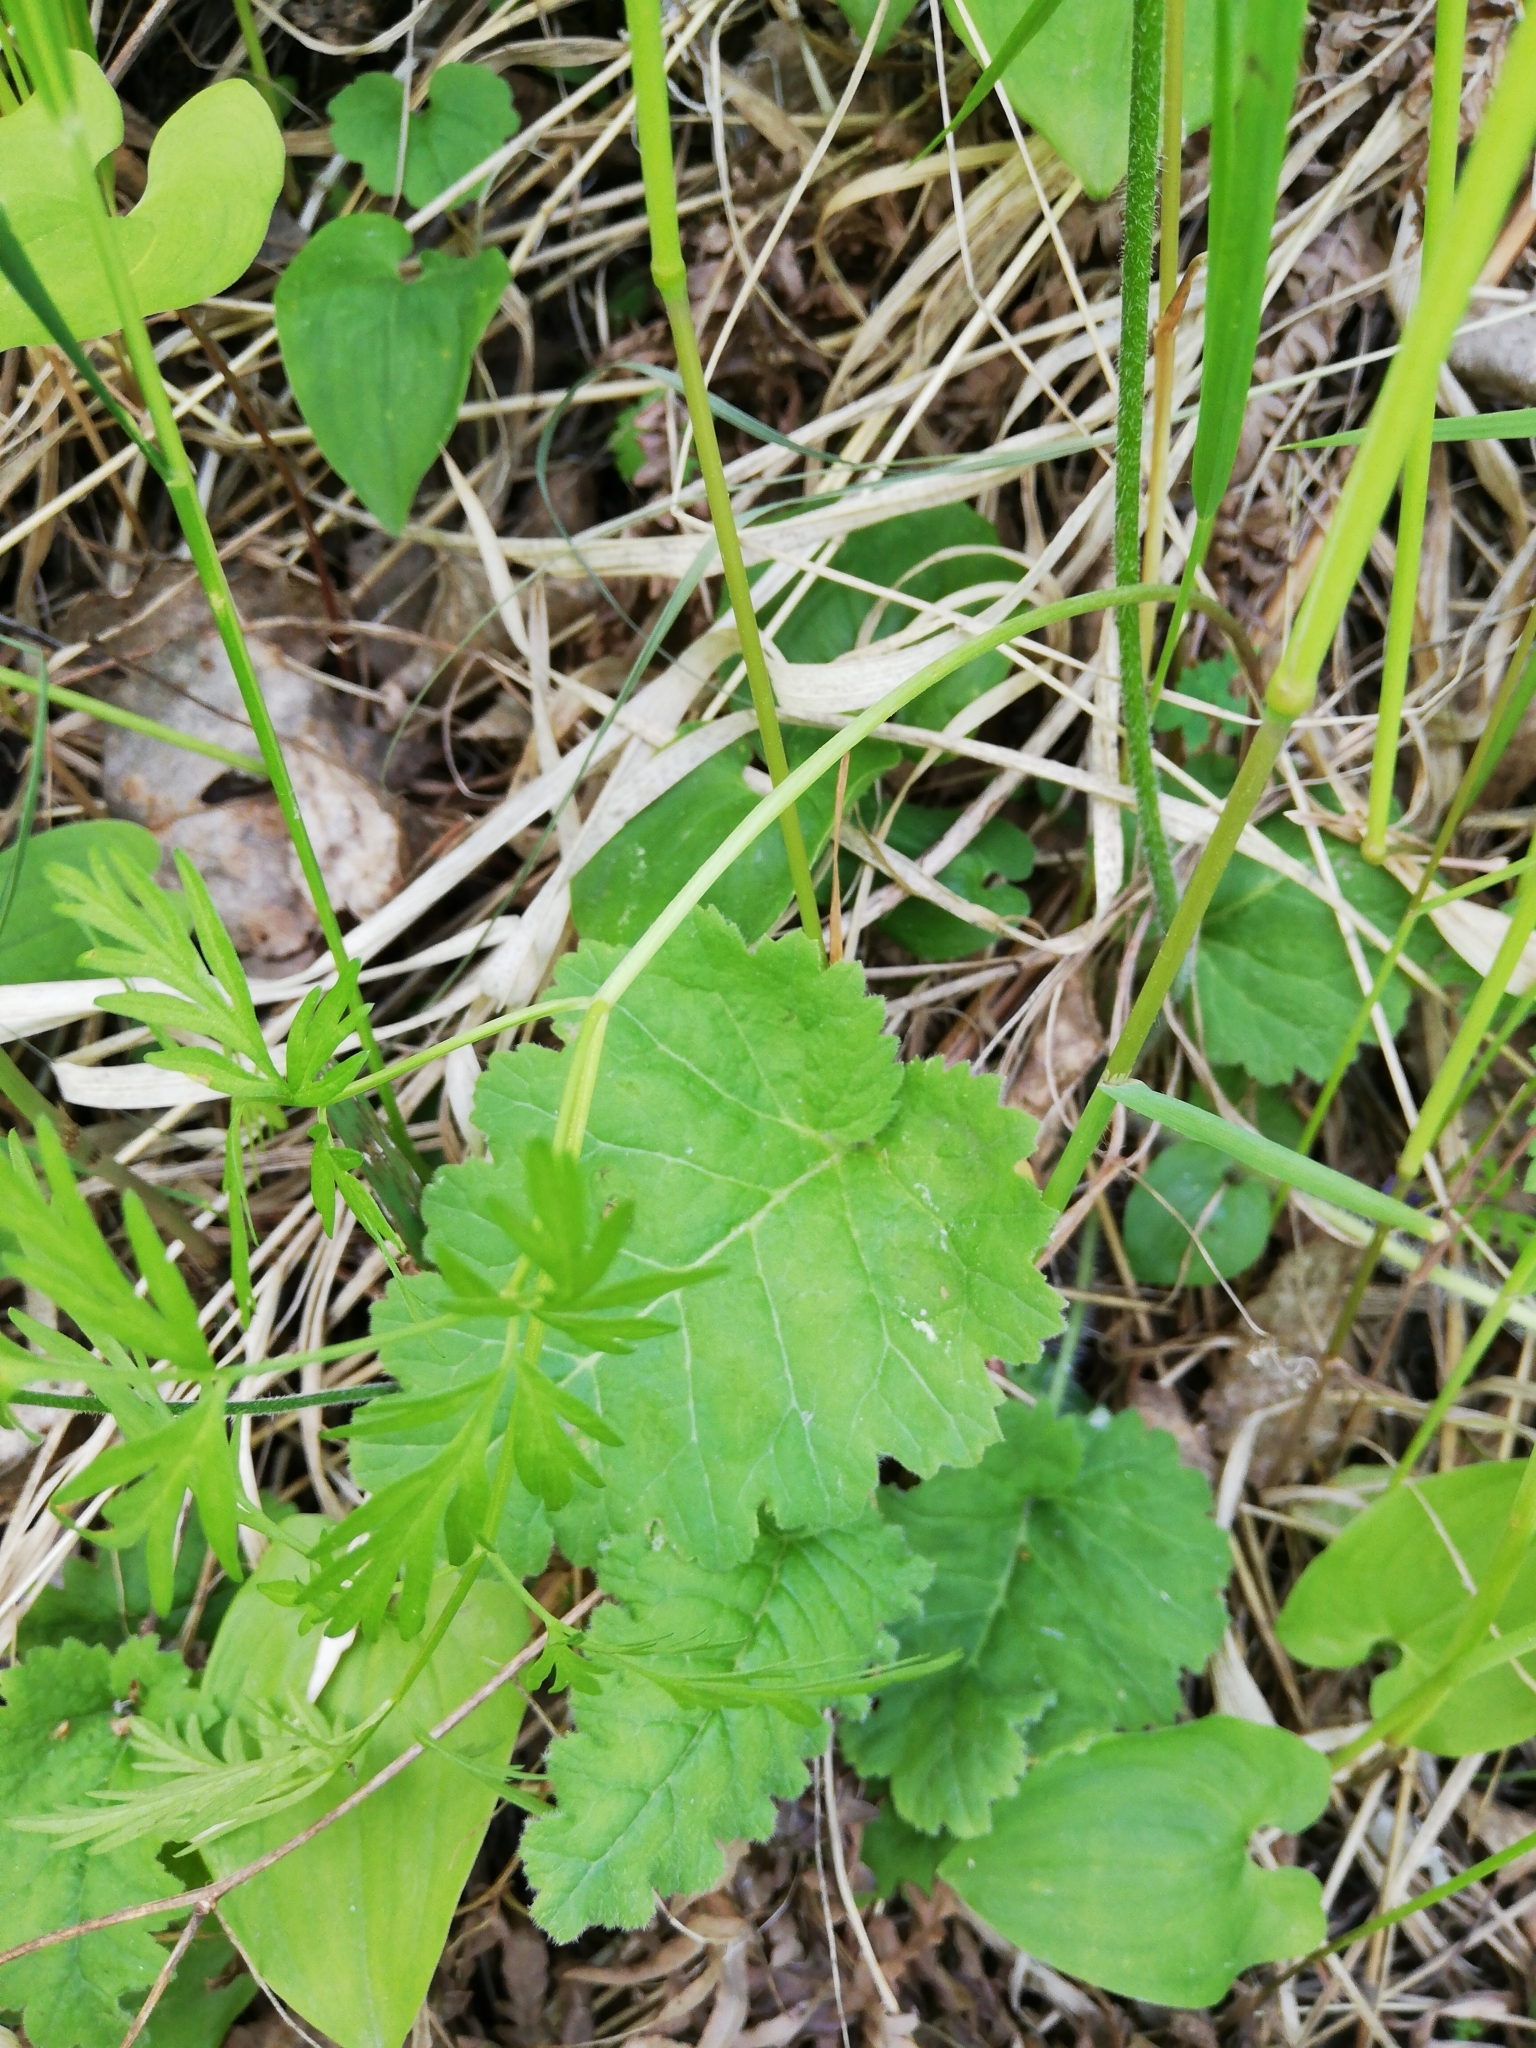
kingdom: Plantae
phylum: Tracheophyta
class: Magnoliopsida
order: Ericales
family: Primulaceae
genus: Primula
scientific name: Primula cortusoides
